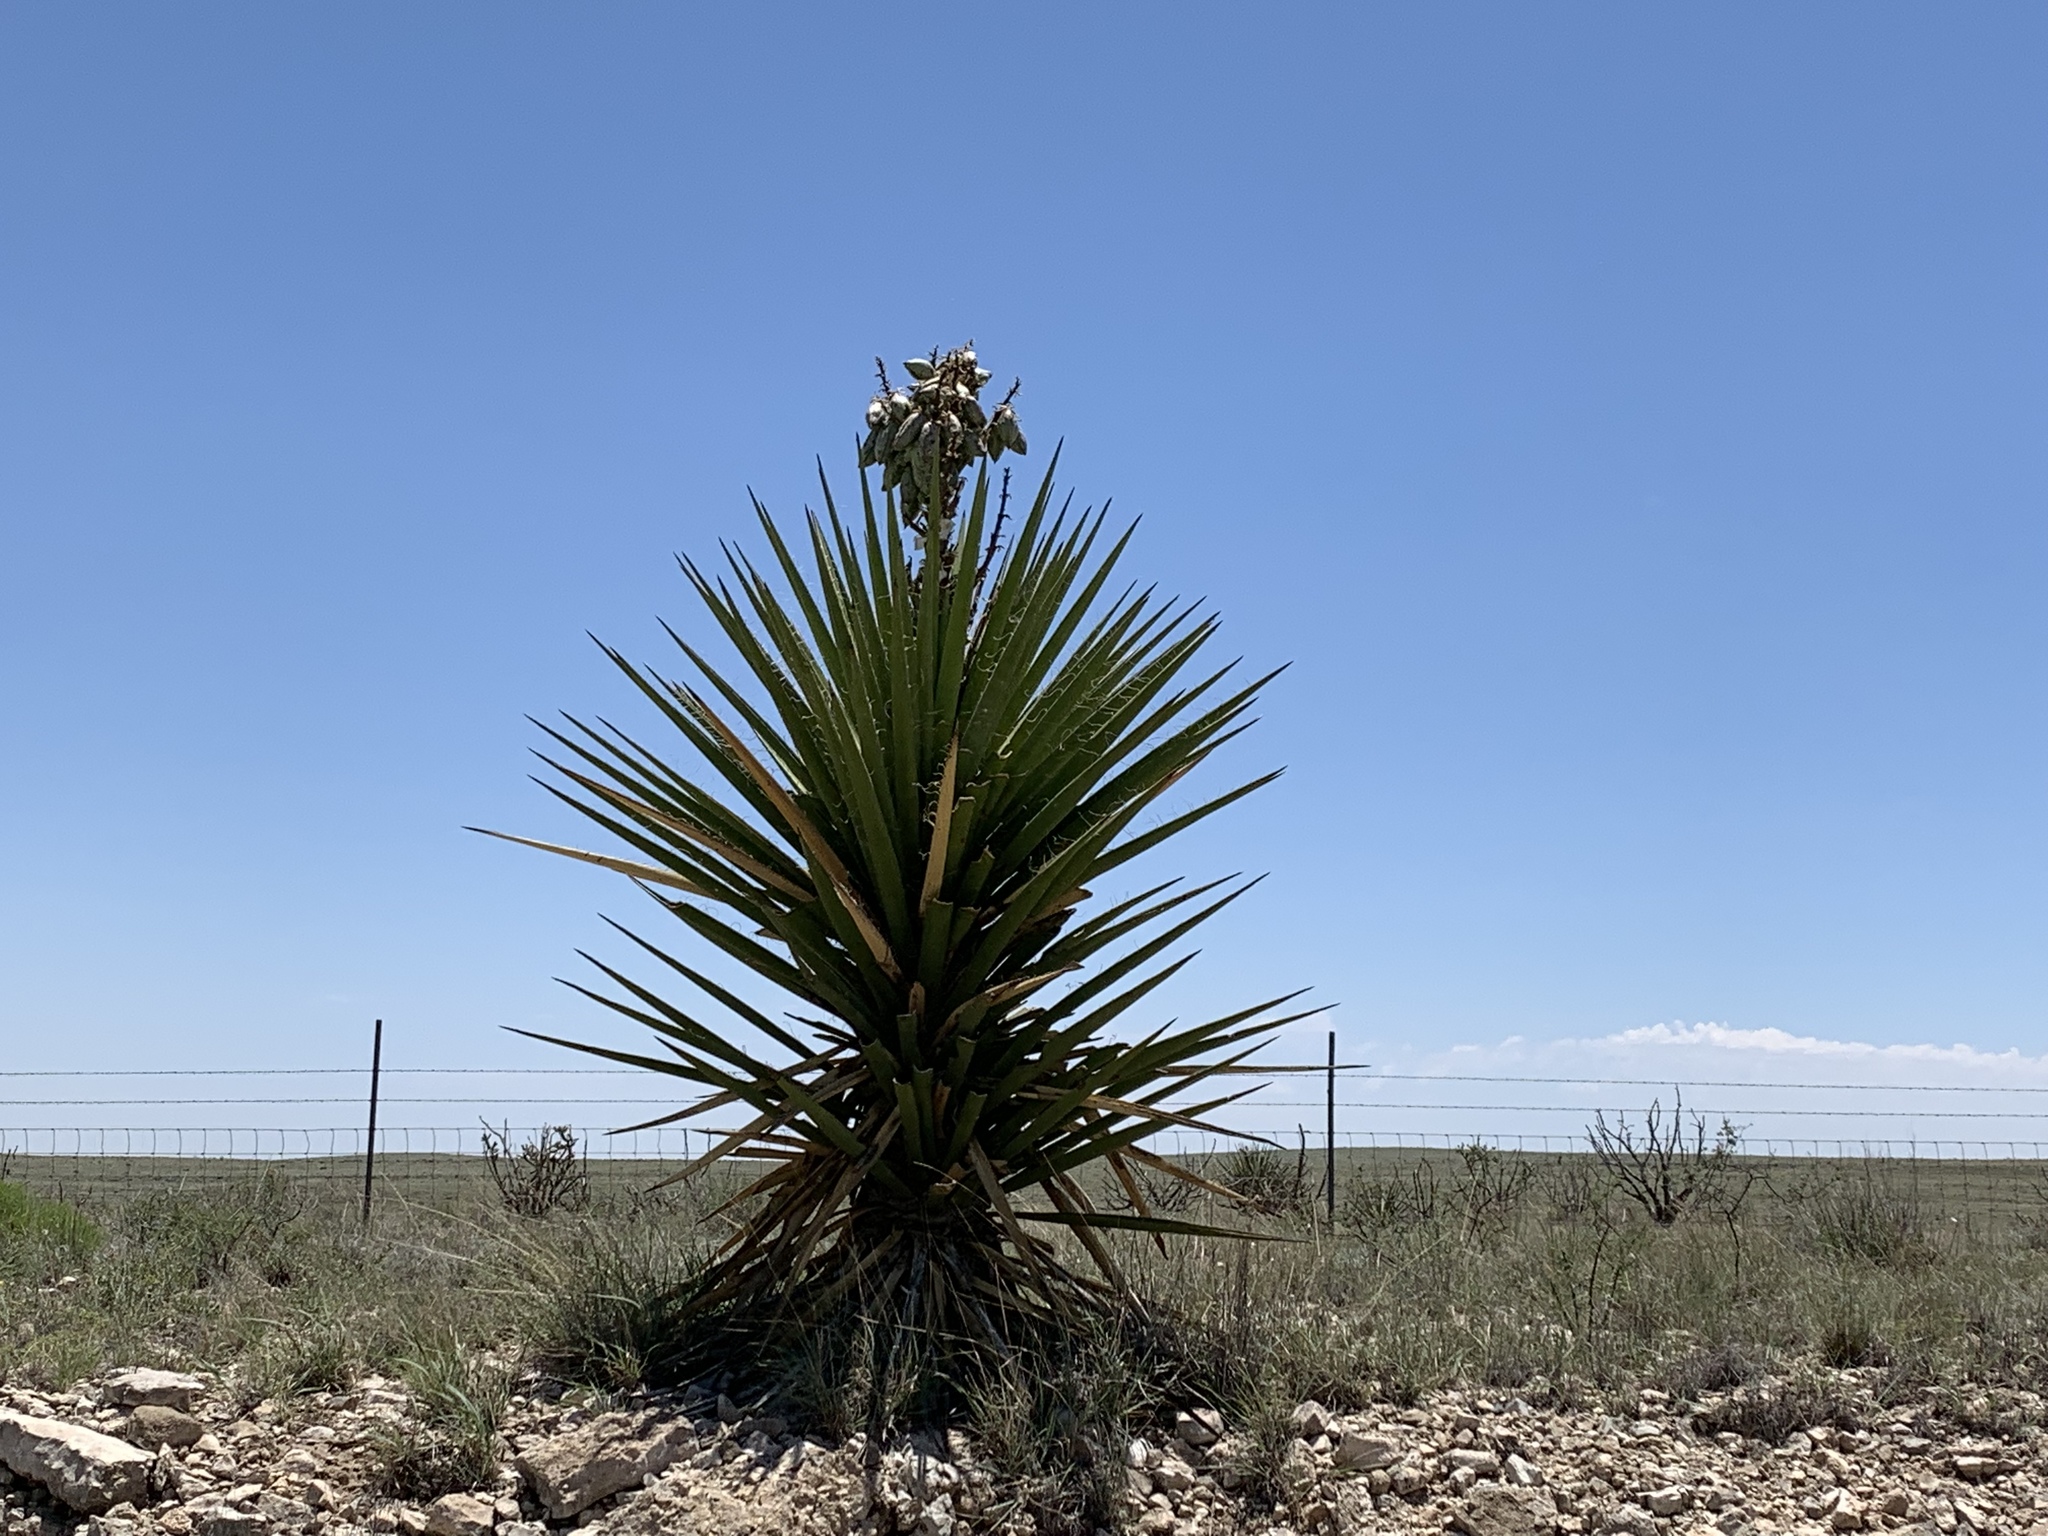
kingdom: Plantae
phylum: Tracheophyta
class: Liliopsida
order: Asparagales
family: Asparagaceae
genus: Yucca
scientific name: Yucca treculiana
